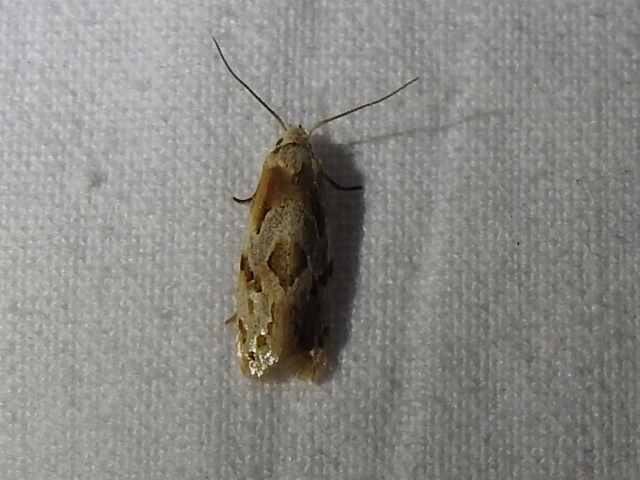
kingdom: Animalia
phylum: Arthropoda
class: Insecta
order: Lepidoptera
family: Tortricidae
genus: Aethes
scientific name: Aethes seriatana
